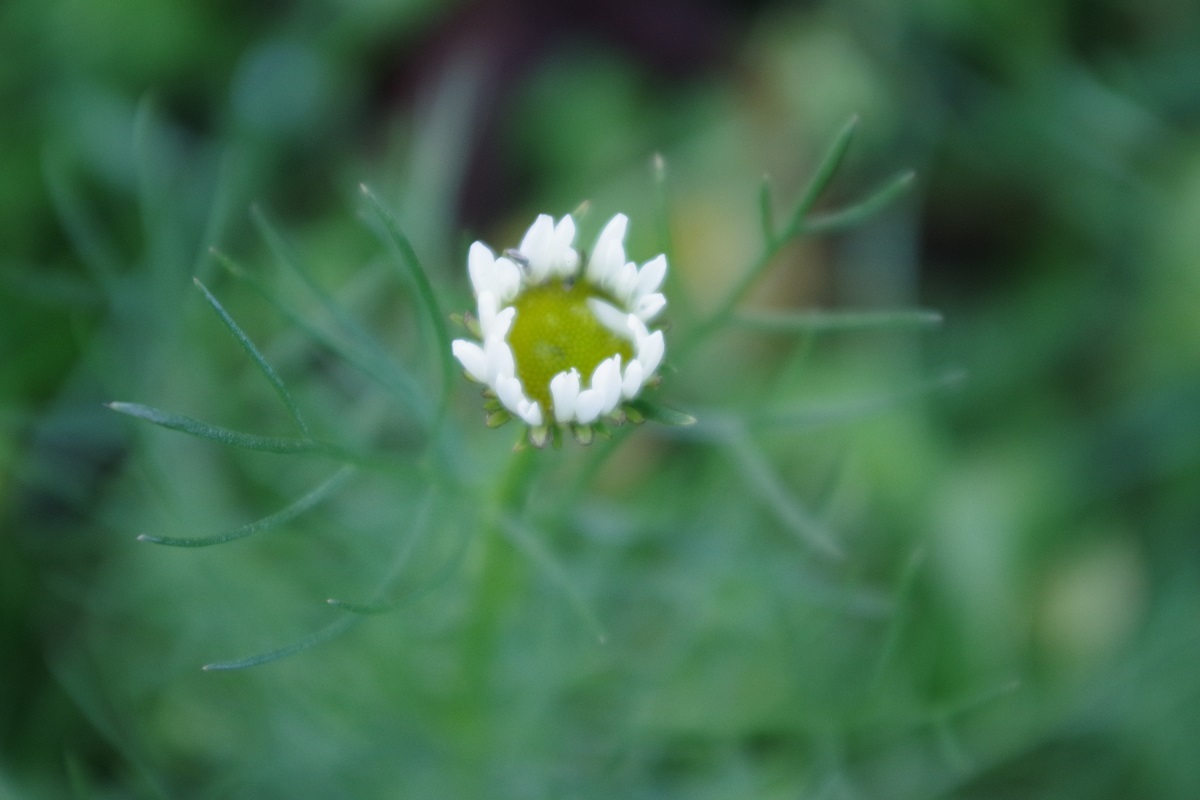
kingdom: Plantae
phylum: Tracheophyta
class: Magnoliopsida
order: Asterales
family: Asteraceae
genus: Tripleurospermum
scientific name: Tripleurospermum inodorum
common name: Scentless mayweed
